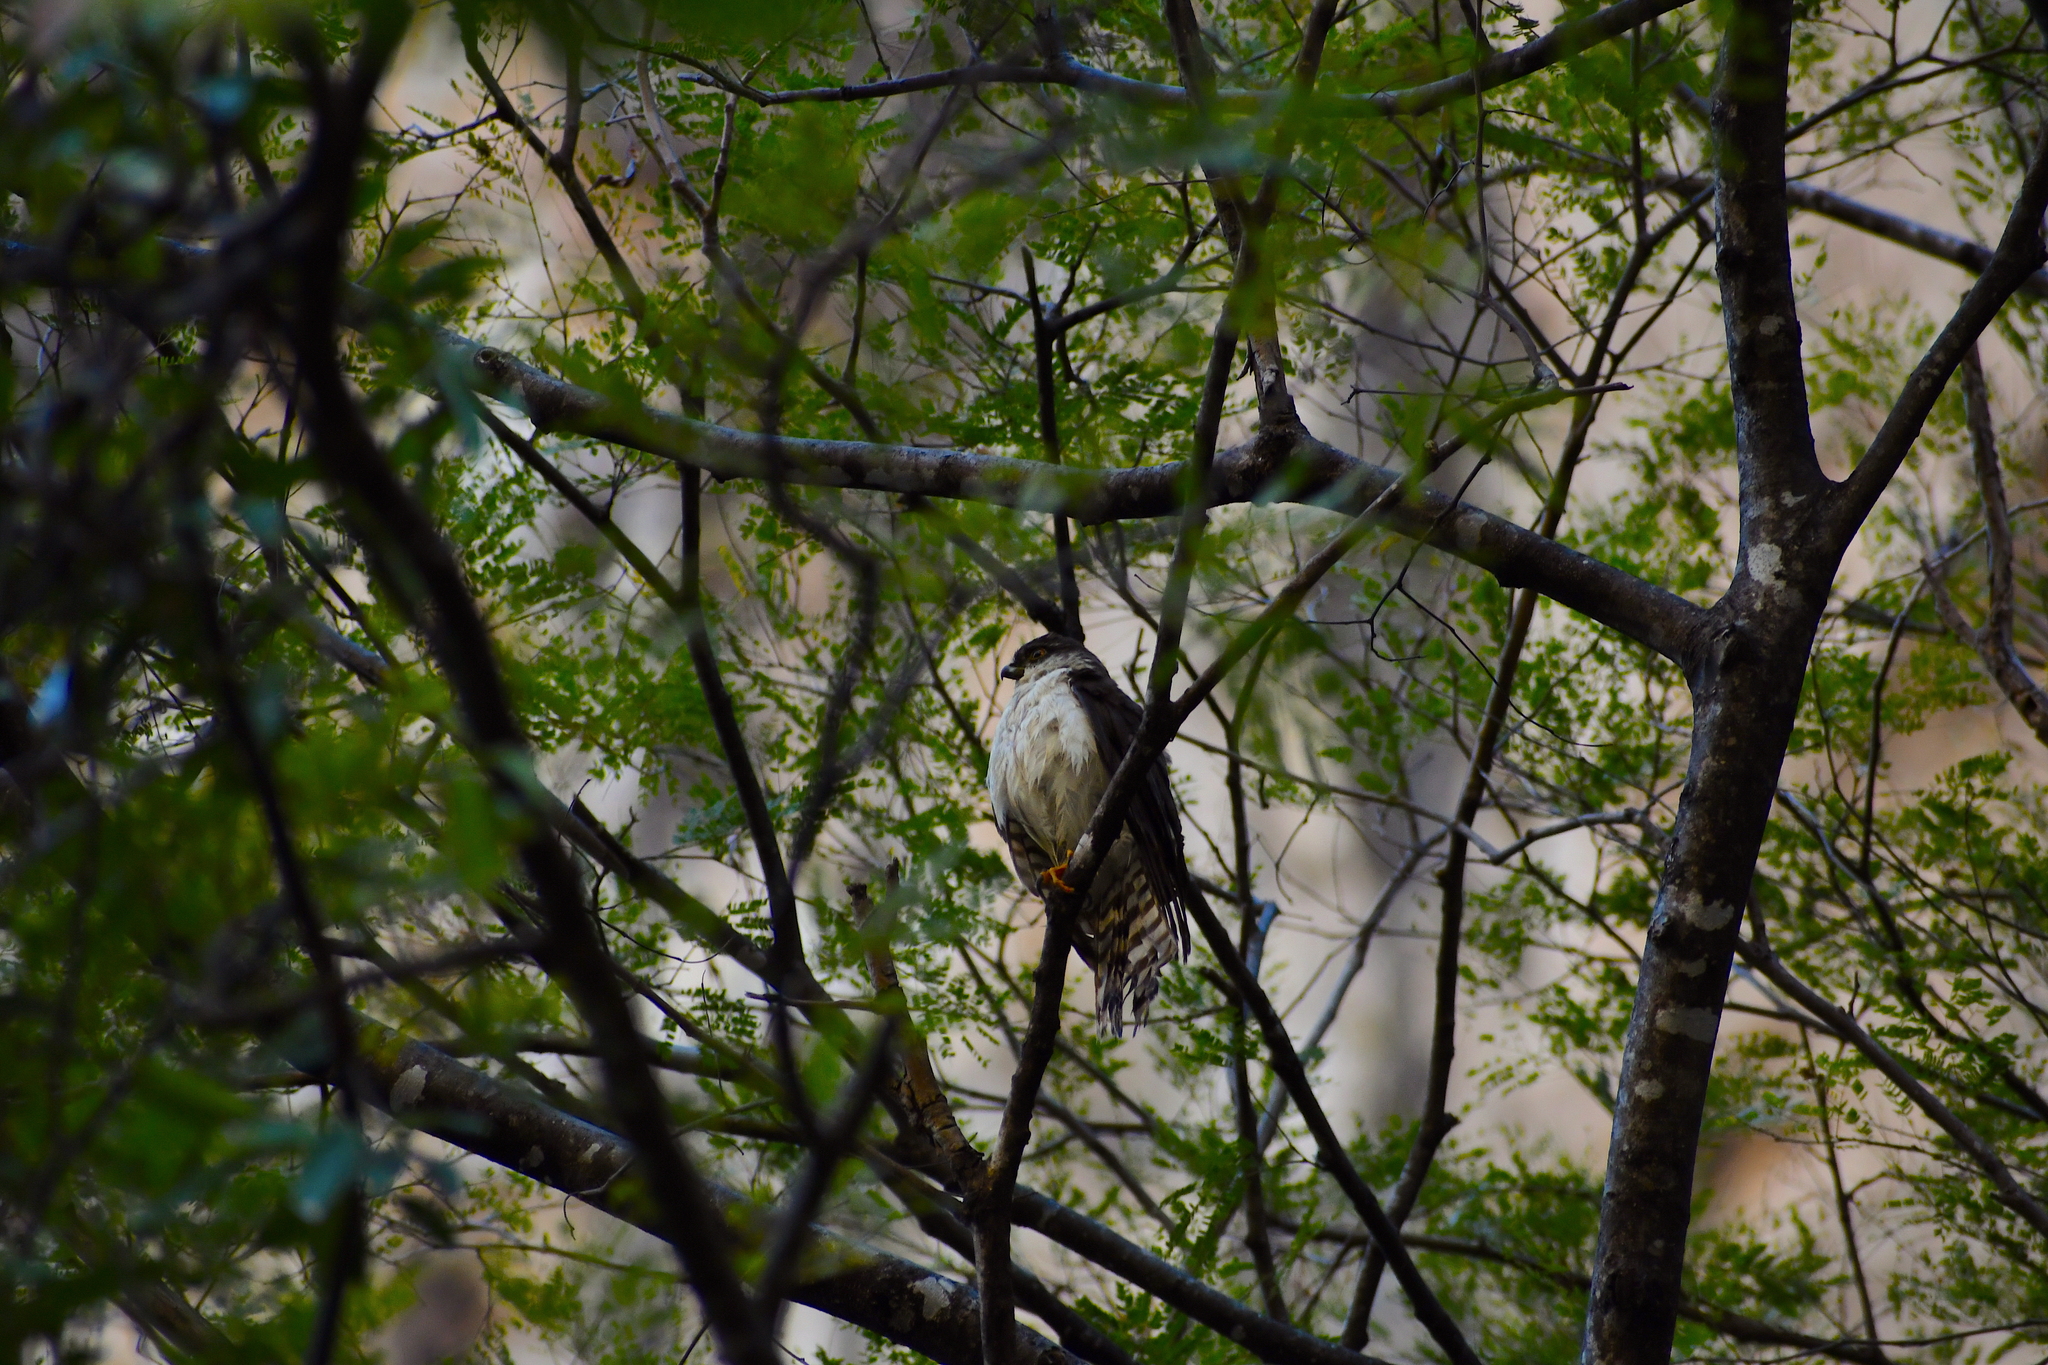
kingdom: Animalia
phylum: Chordata
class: Aves
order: Accipitriformes
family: Accipitridae
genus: Accipiter
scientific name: Accipiter striatus
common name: Sharp-shinned hawk
